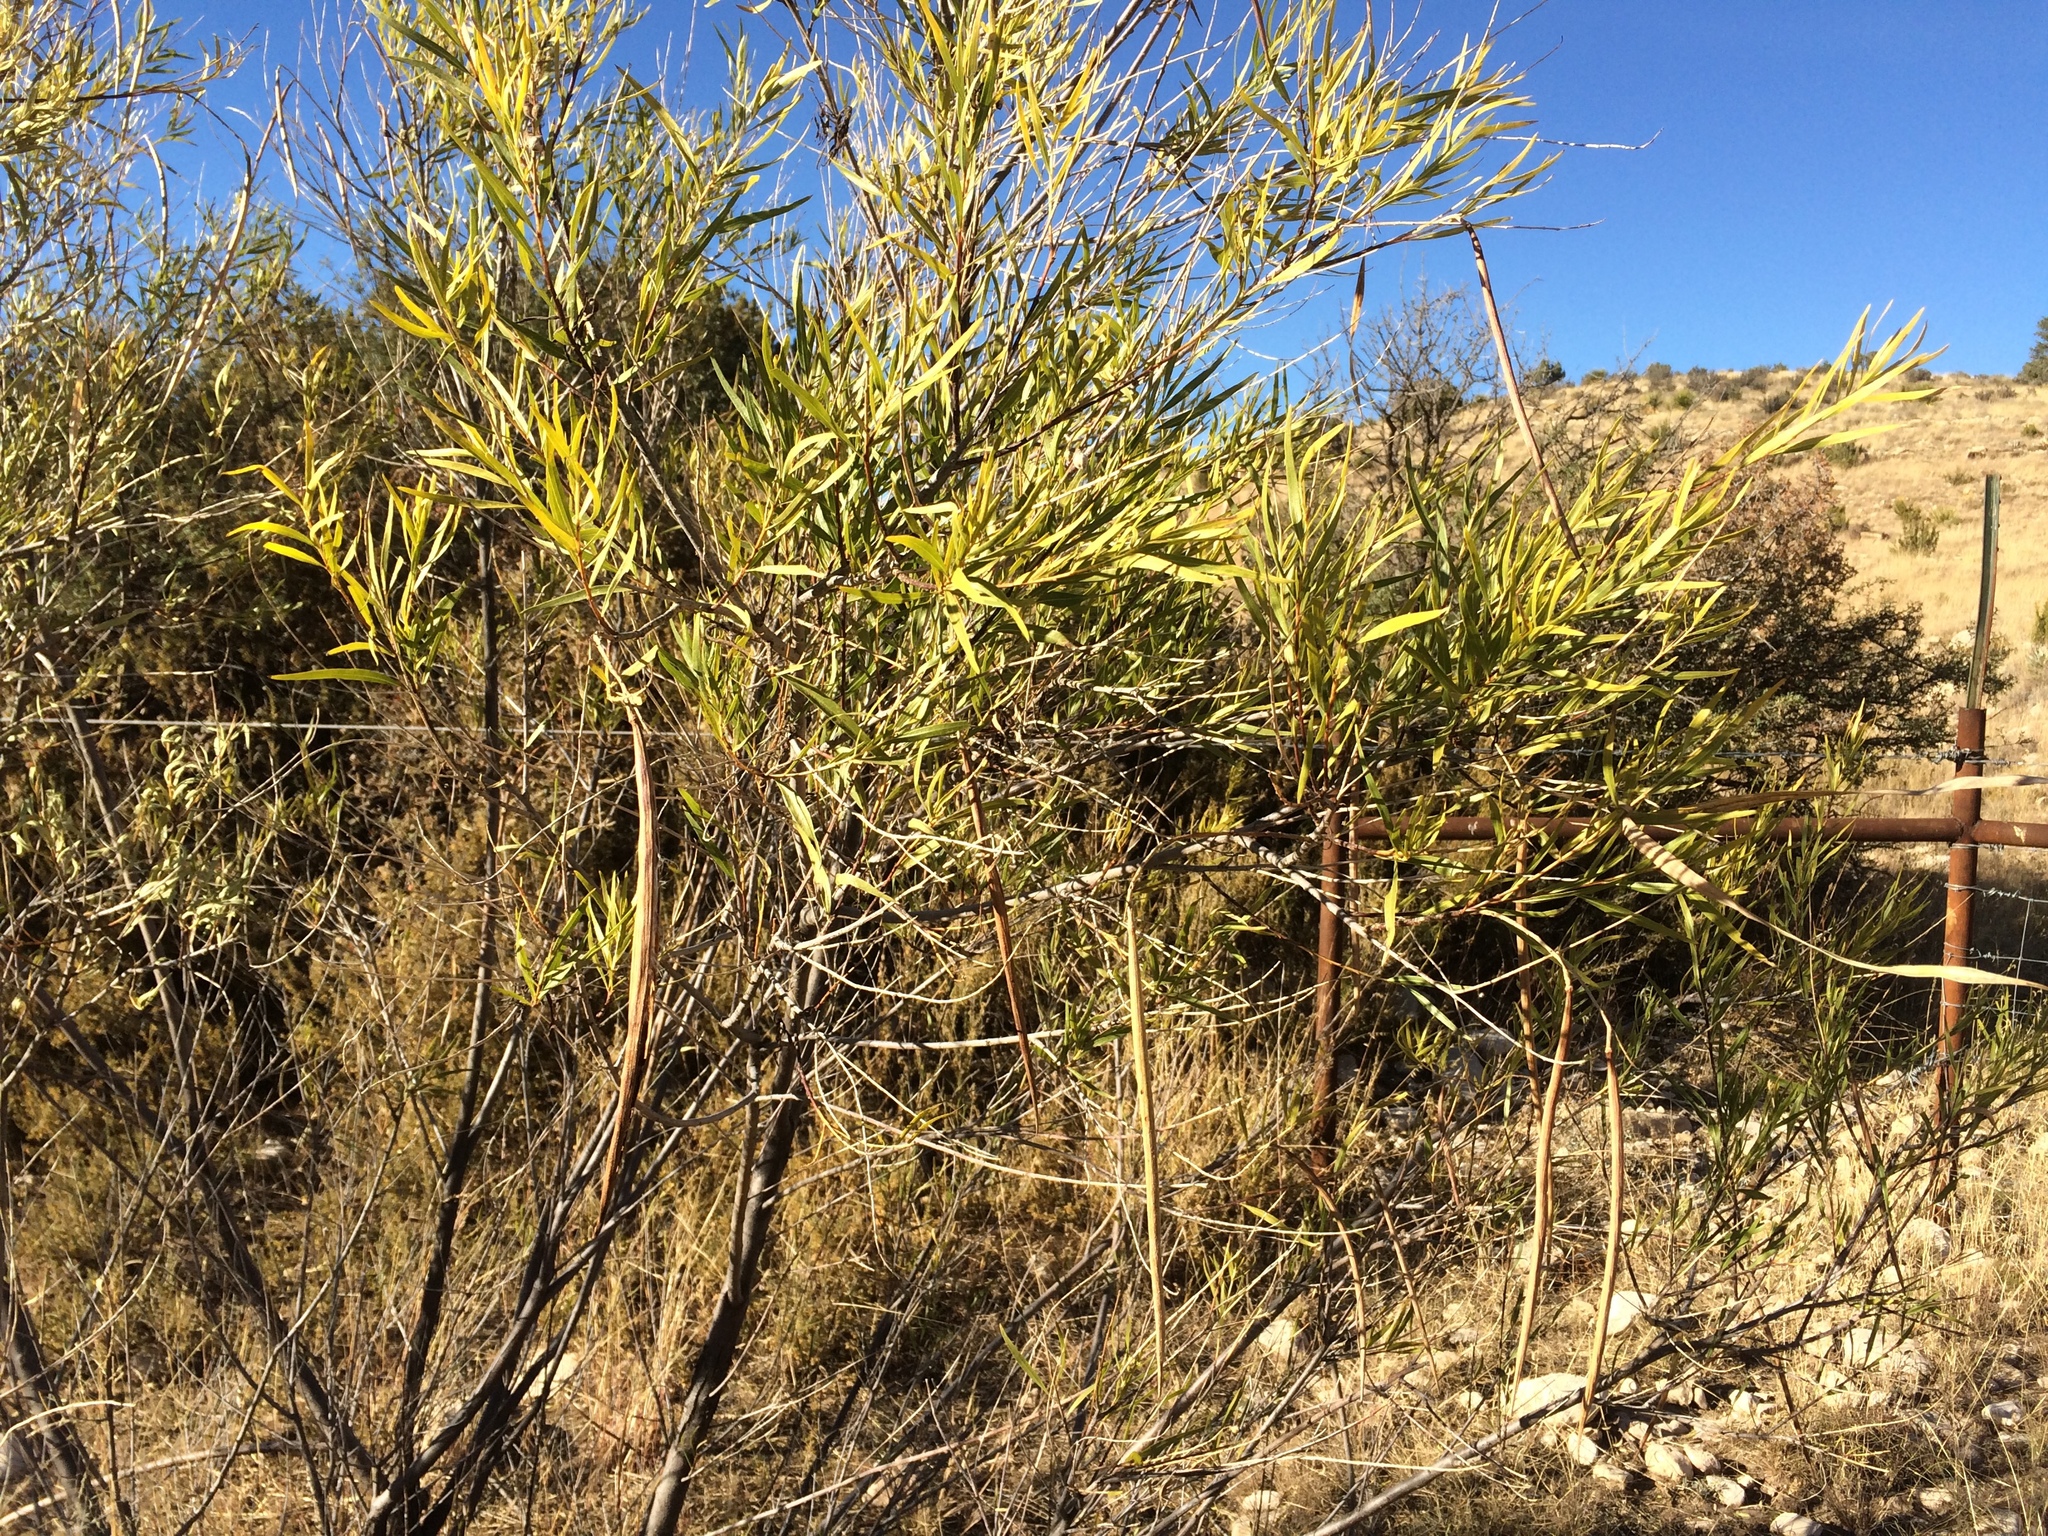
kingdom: Plantae
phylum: Tracheophyta
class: Magnoliopsida
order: Lamiales
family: Bignoniaceae
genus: Chilopsis
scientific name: Chilopsis linearis
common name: Desert-willow
